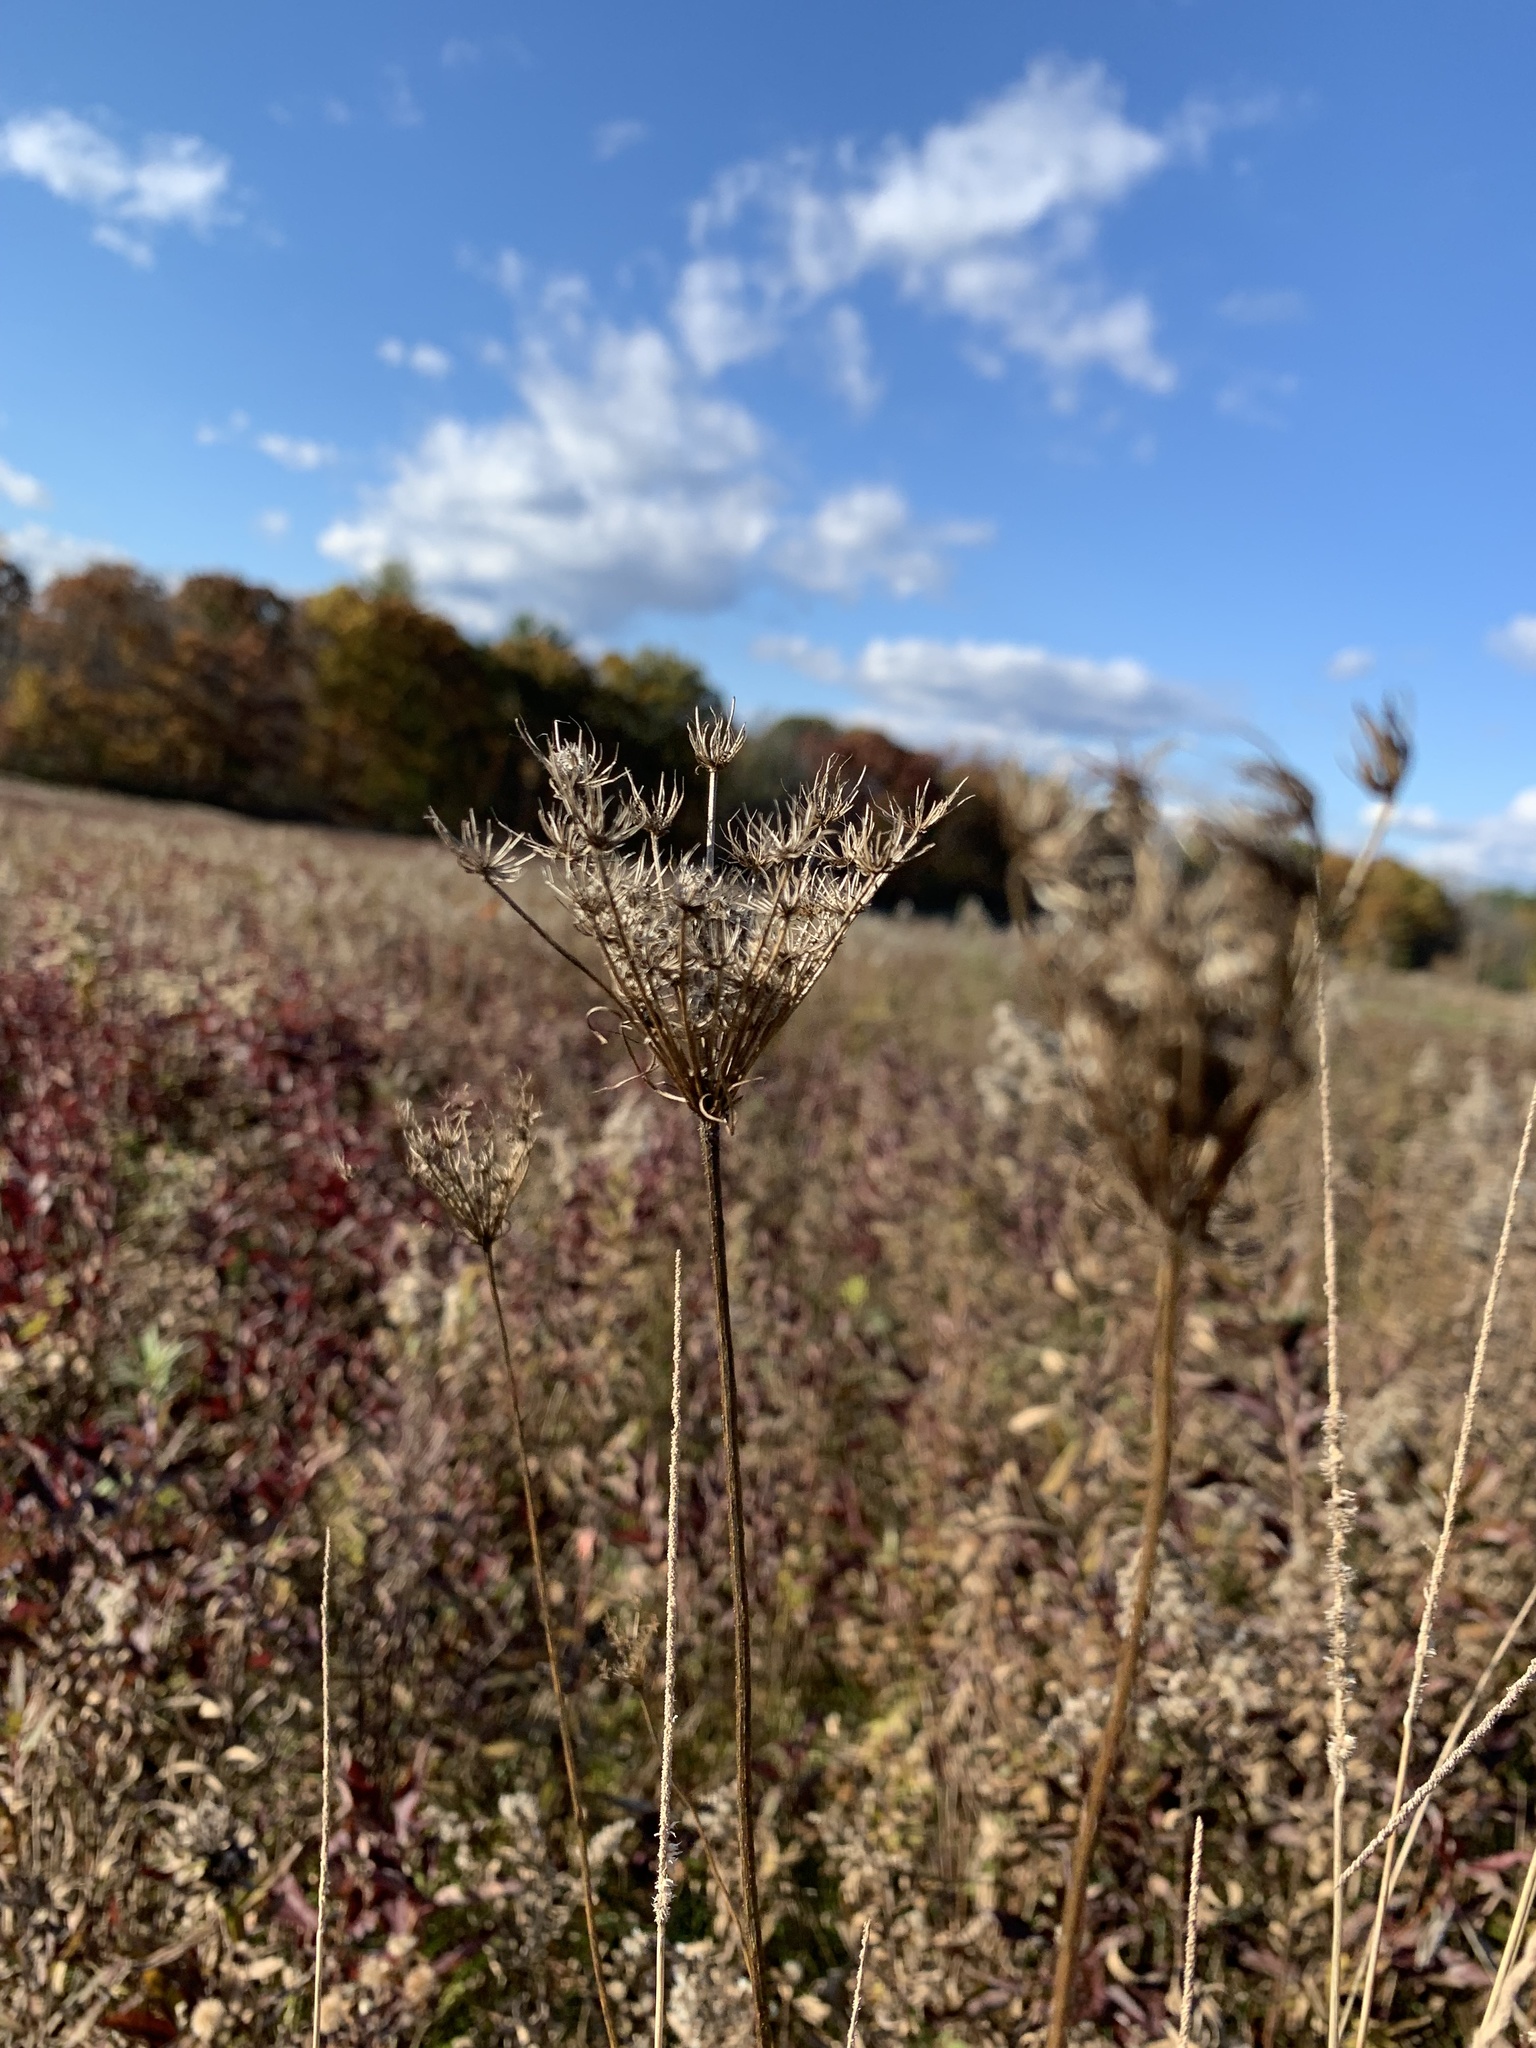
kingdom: Plantae
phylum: Tracheophyta
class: Magnoliopsida
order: Apiales
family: Apiaceae
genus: Daucus
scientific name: Daucus carota
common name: Wild carrot
